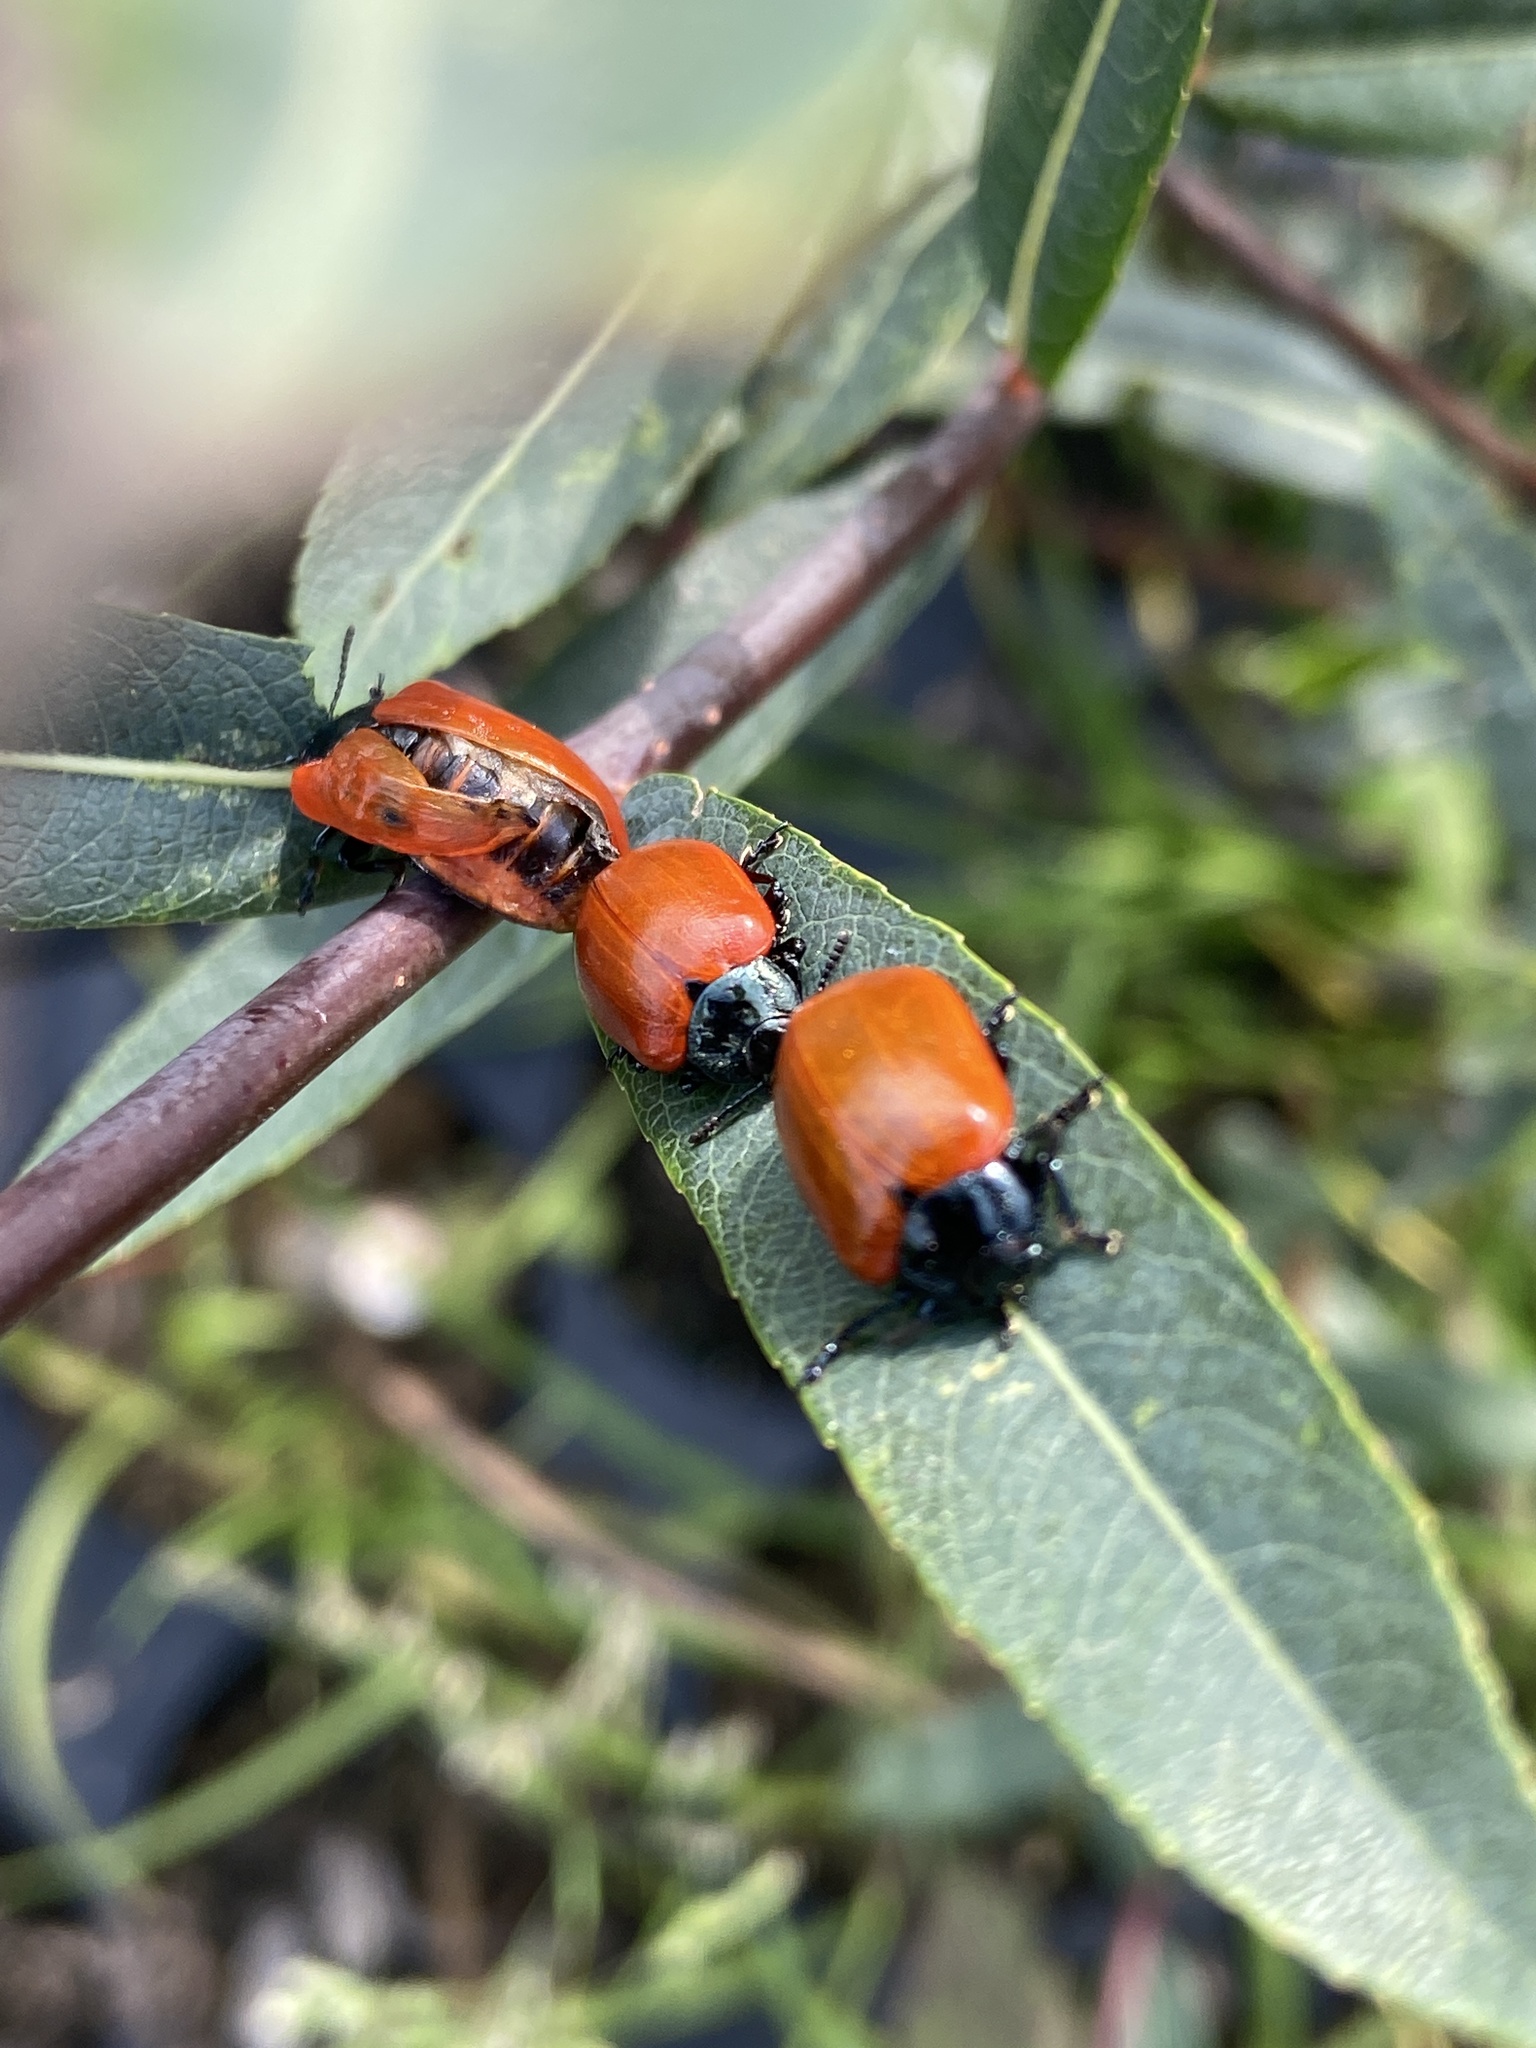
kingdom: Animalia
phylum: Arthropoda
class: Insecta
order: Coleoptera
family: Chrysomelidae
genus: Chrysomela
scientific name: Chrysomela populi
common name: Red poplar leaf beetle
